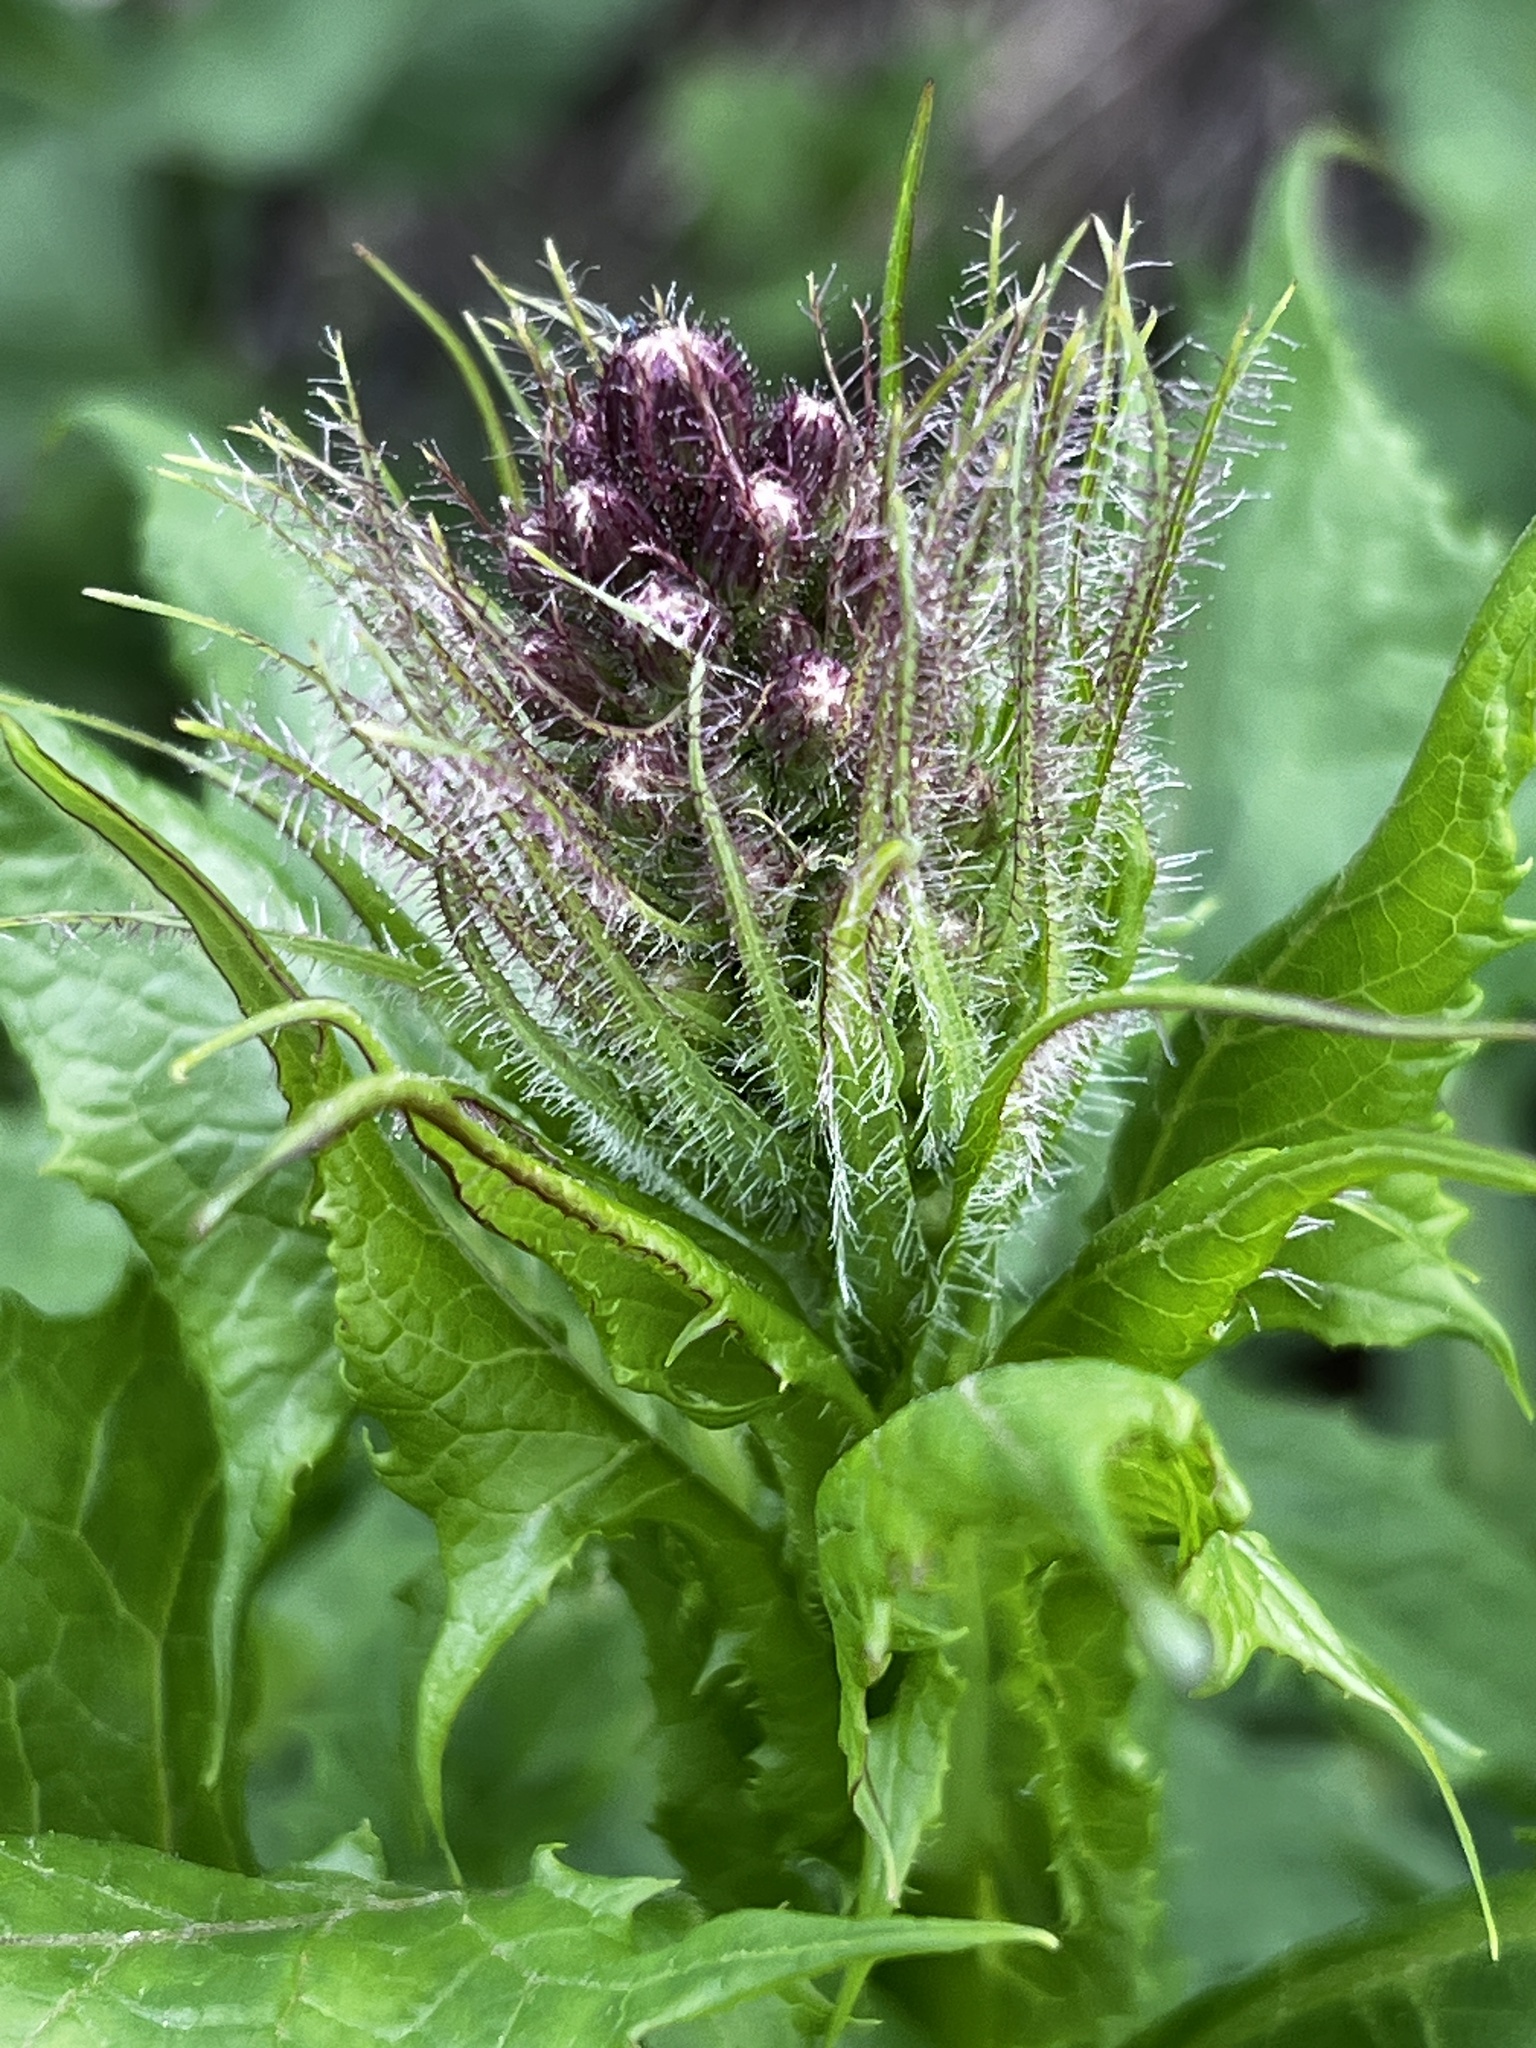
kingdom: Plantae
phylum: Tracheophyta
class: Magnoliopsida
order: Asterales
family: Asteraceae
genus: Cicerbita
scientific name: Cicerbita alpina
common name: Alpine blue-sow-thistle
